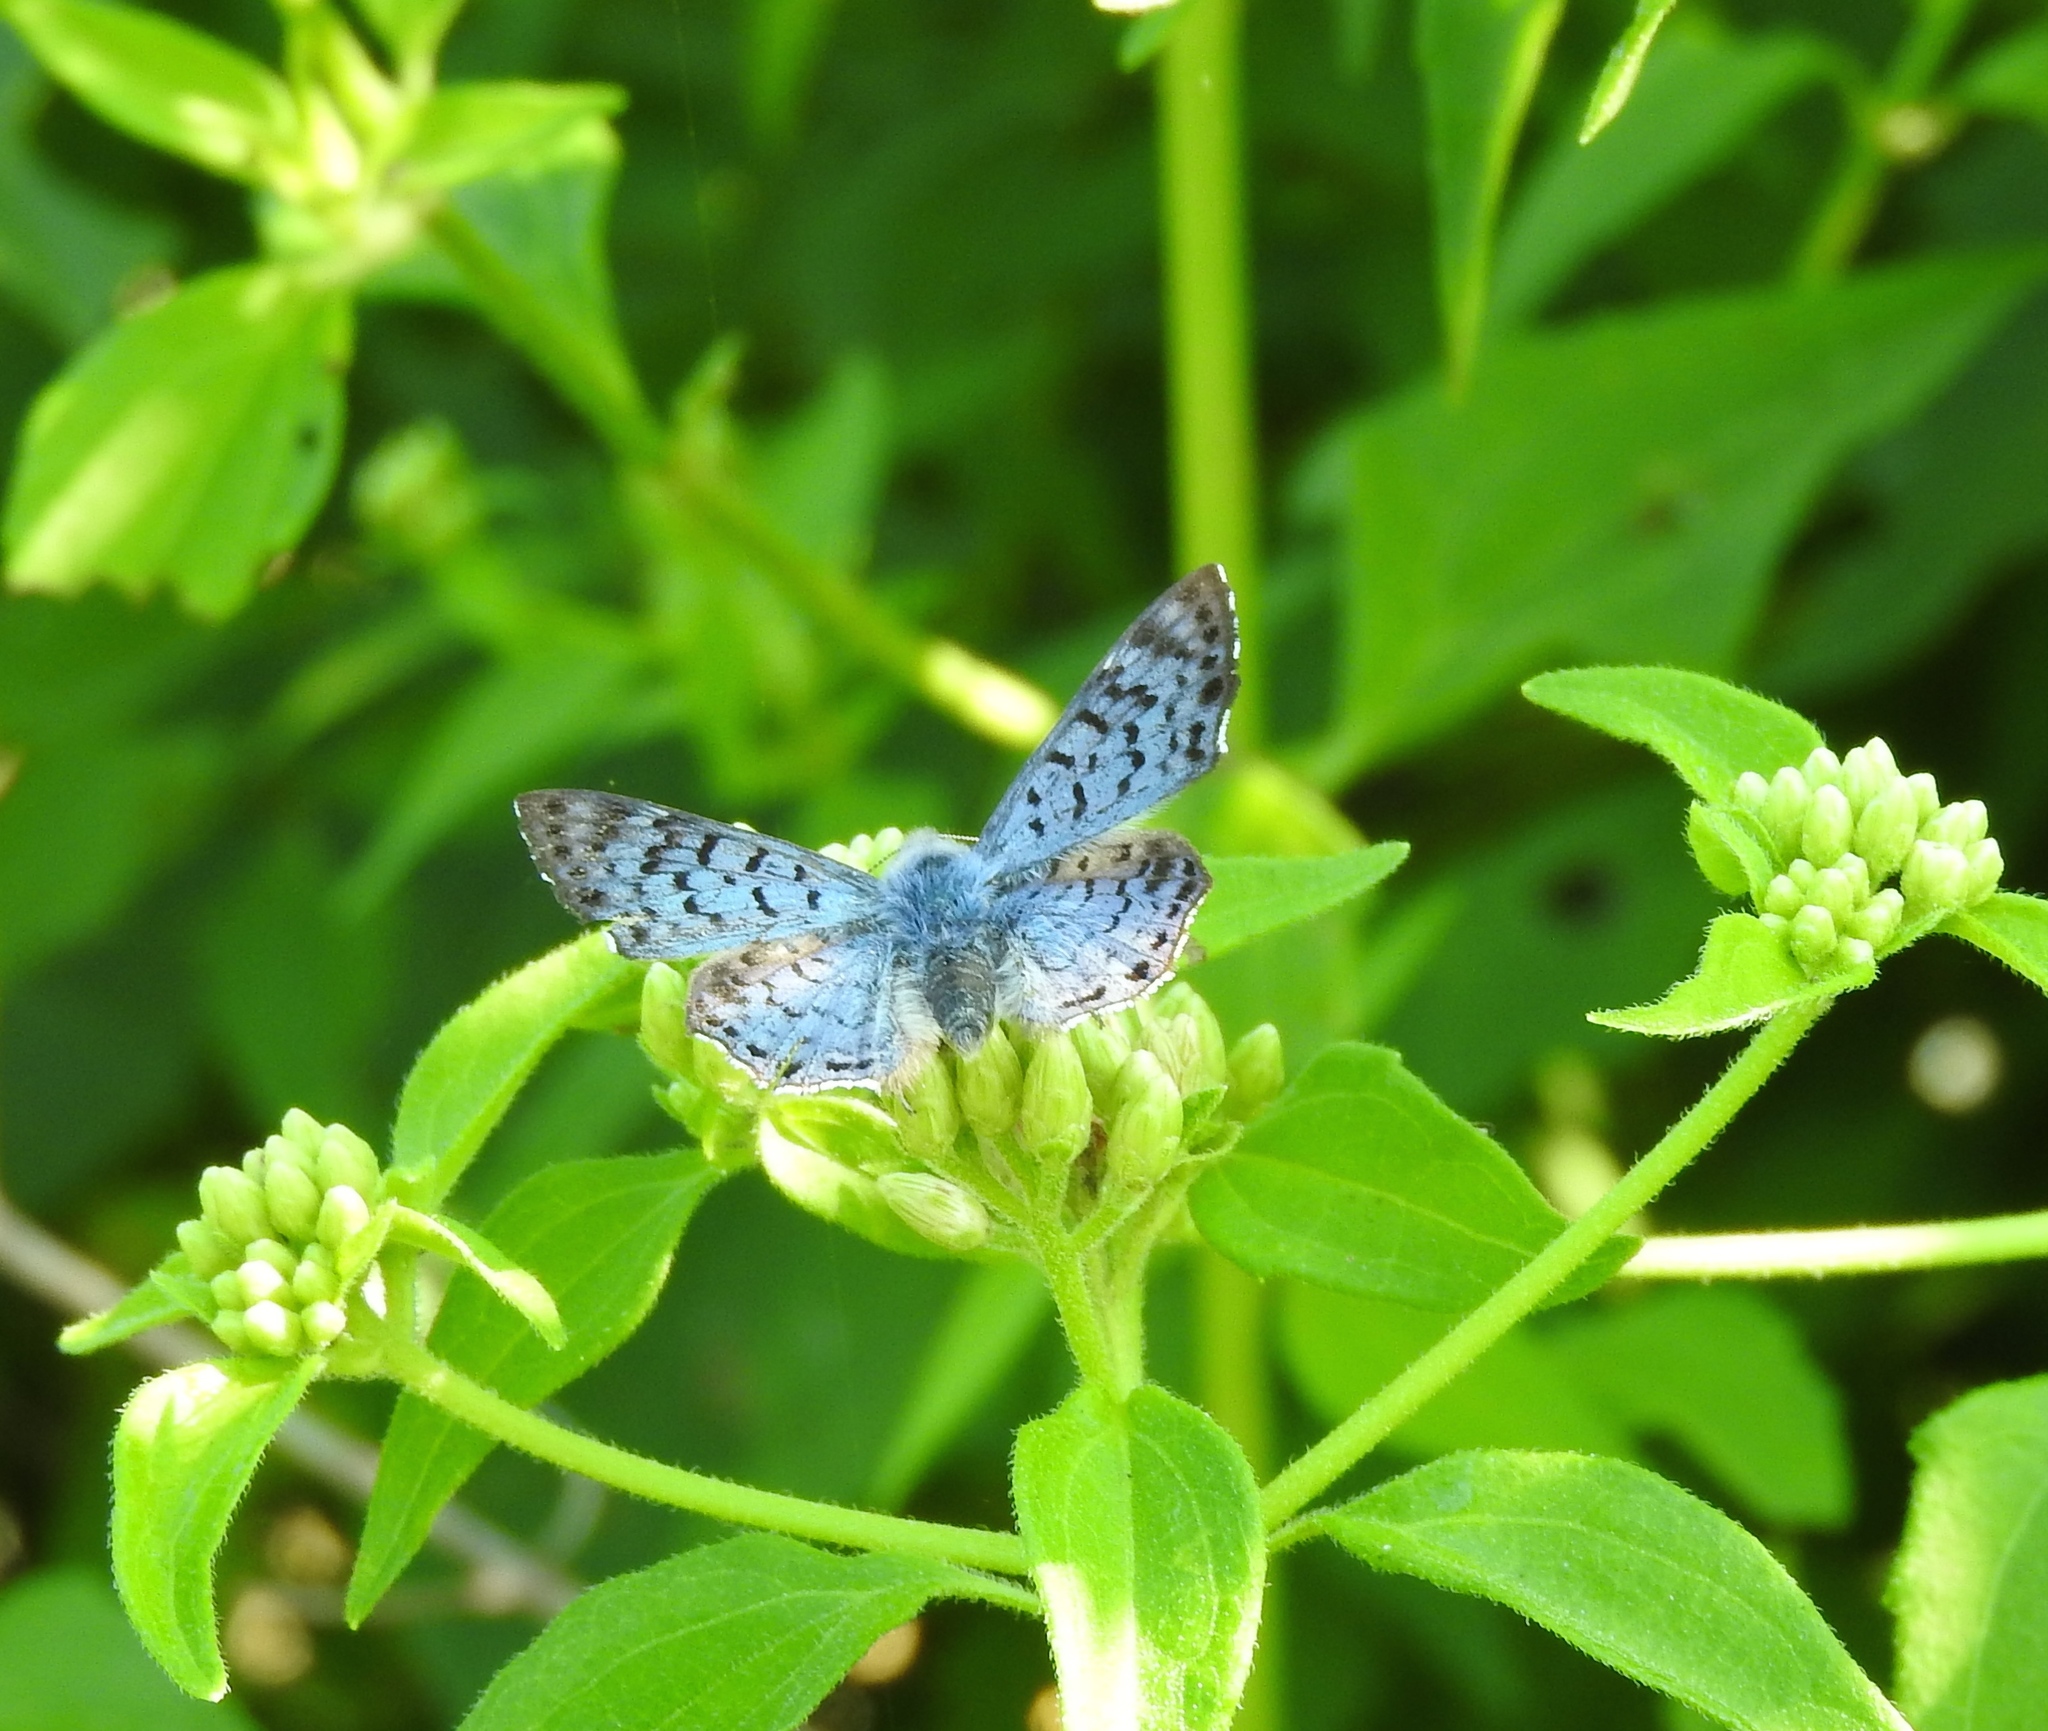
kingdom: Animalia
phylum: Arthropoda
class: Insecta
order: Lepidoptera
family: Riodinidae
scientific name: Riodinidae
